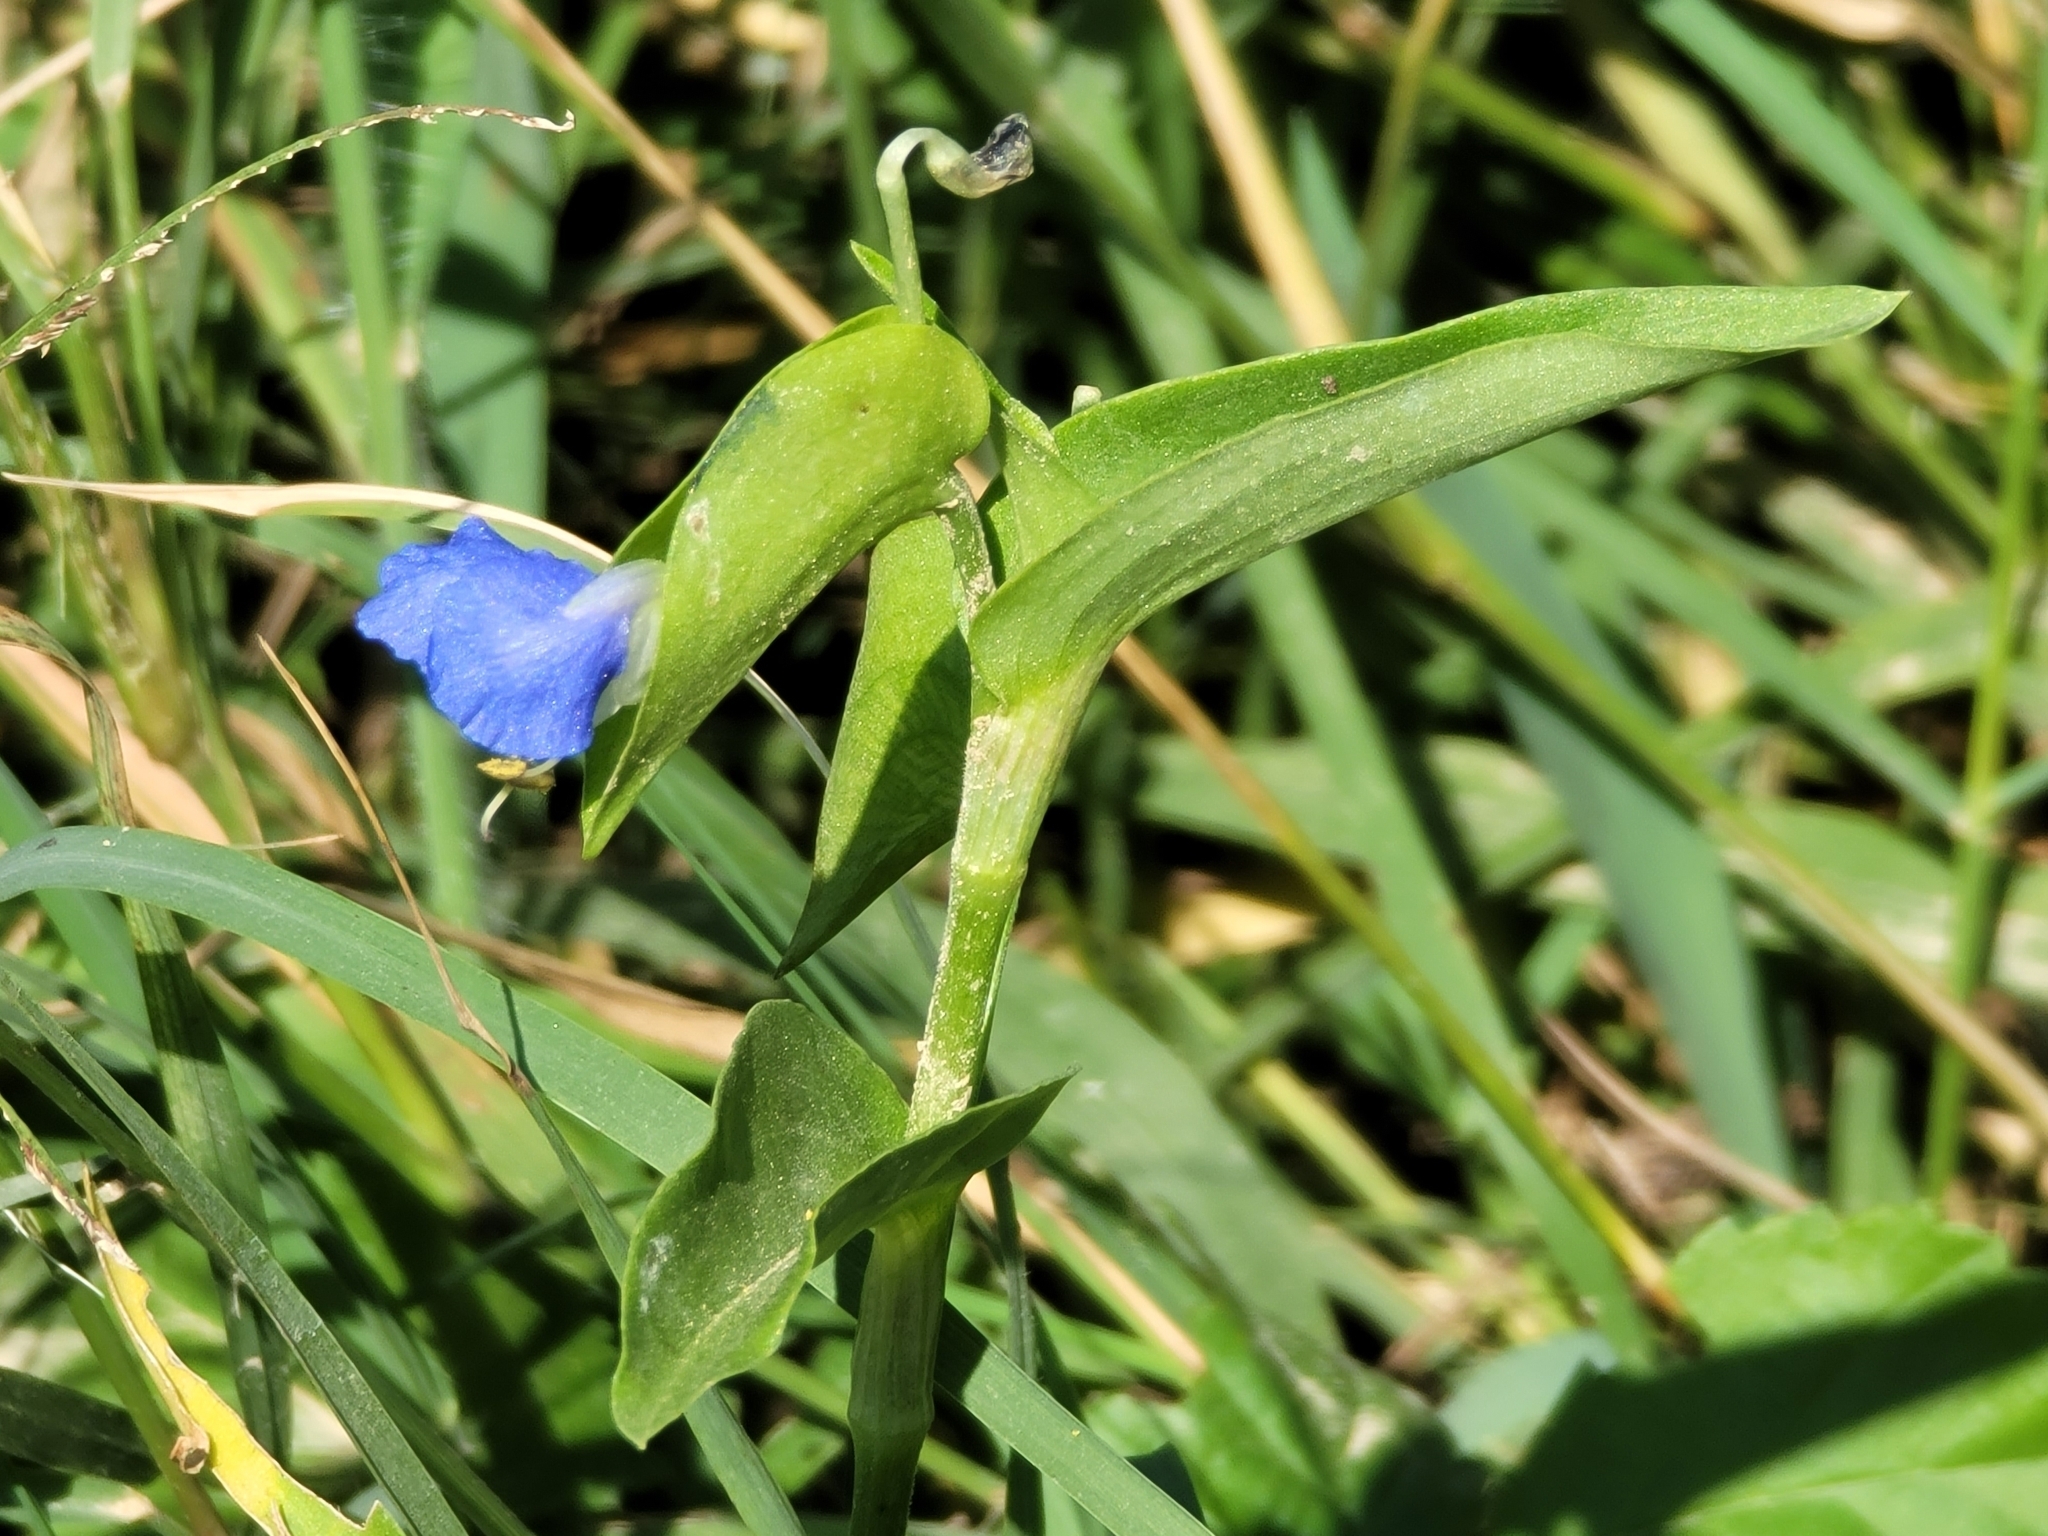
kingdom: Plantae
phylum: Tracheophyta
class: Liliopsida
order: Commelinales
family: Commelinaceae
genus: Commelina
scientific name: Commelina communis
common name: Asiatic dayflower
